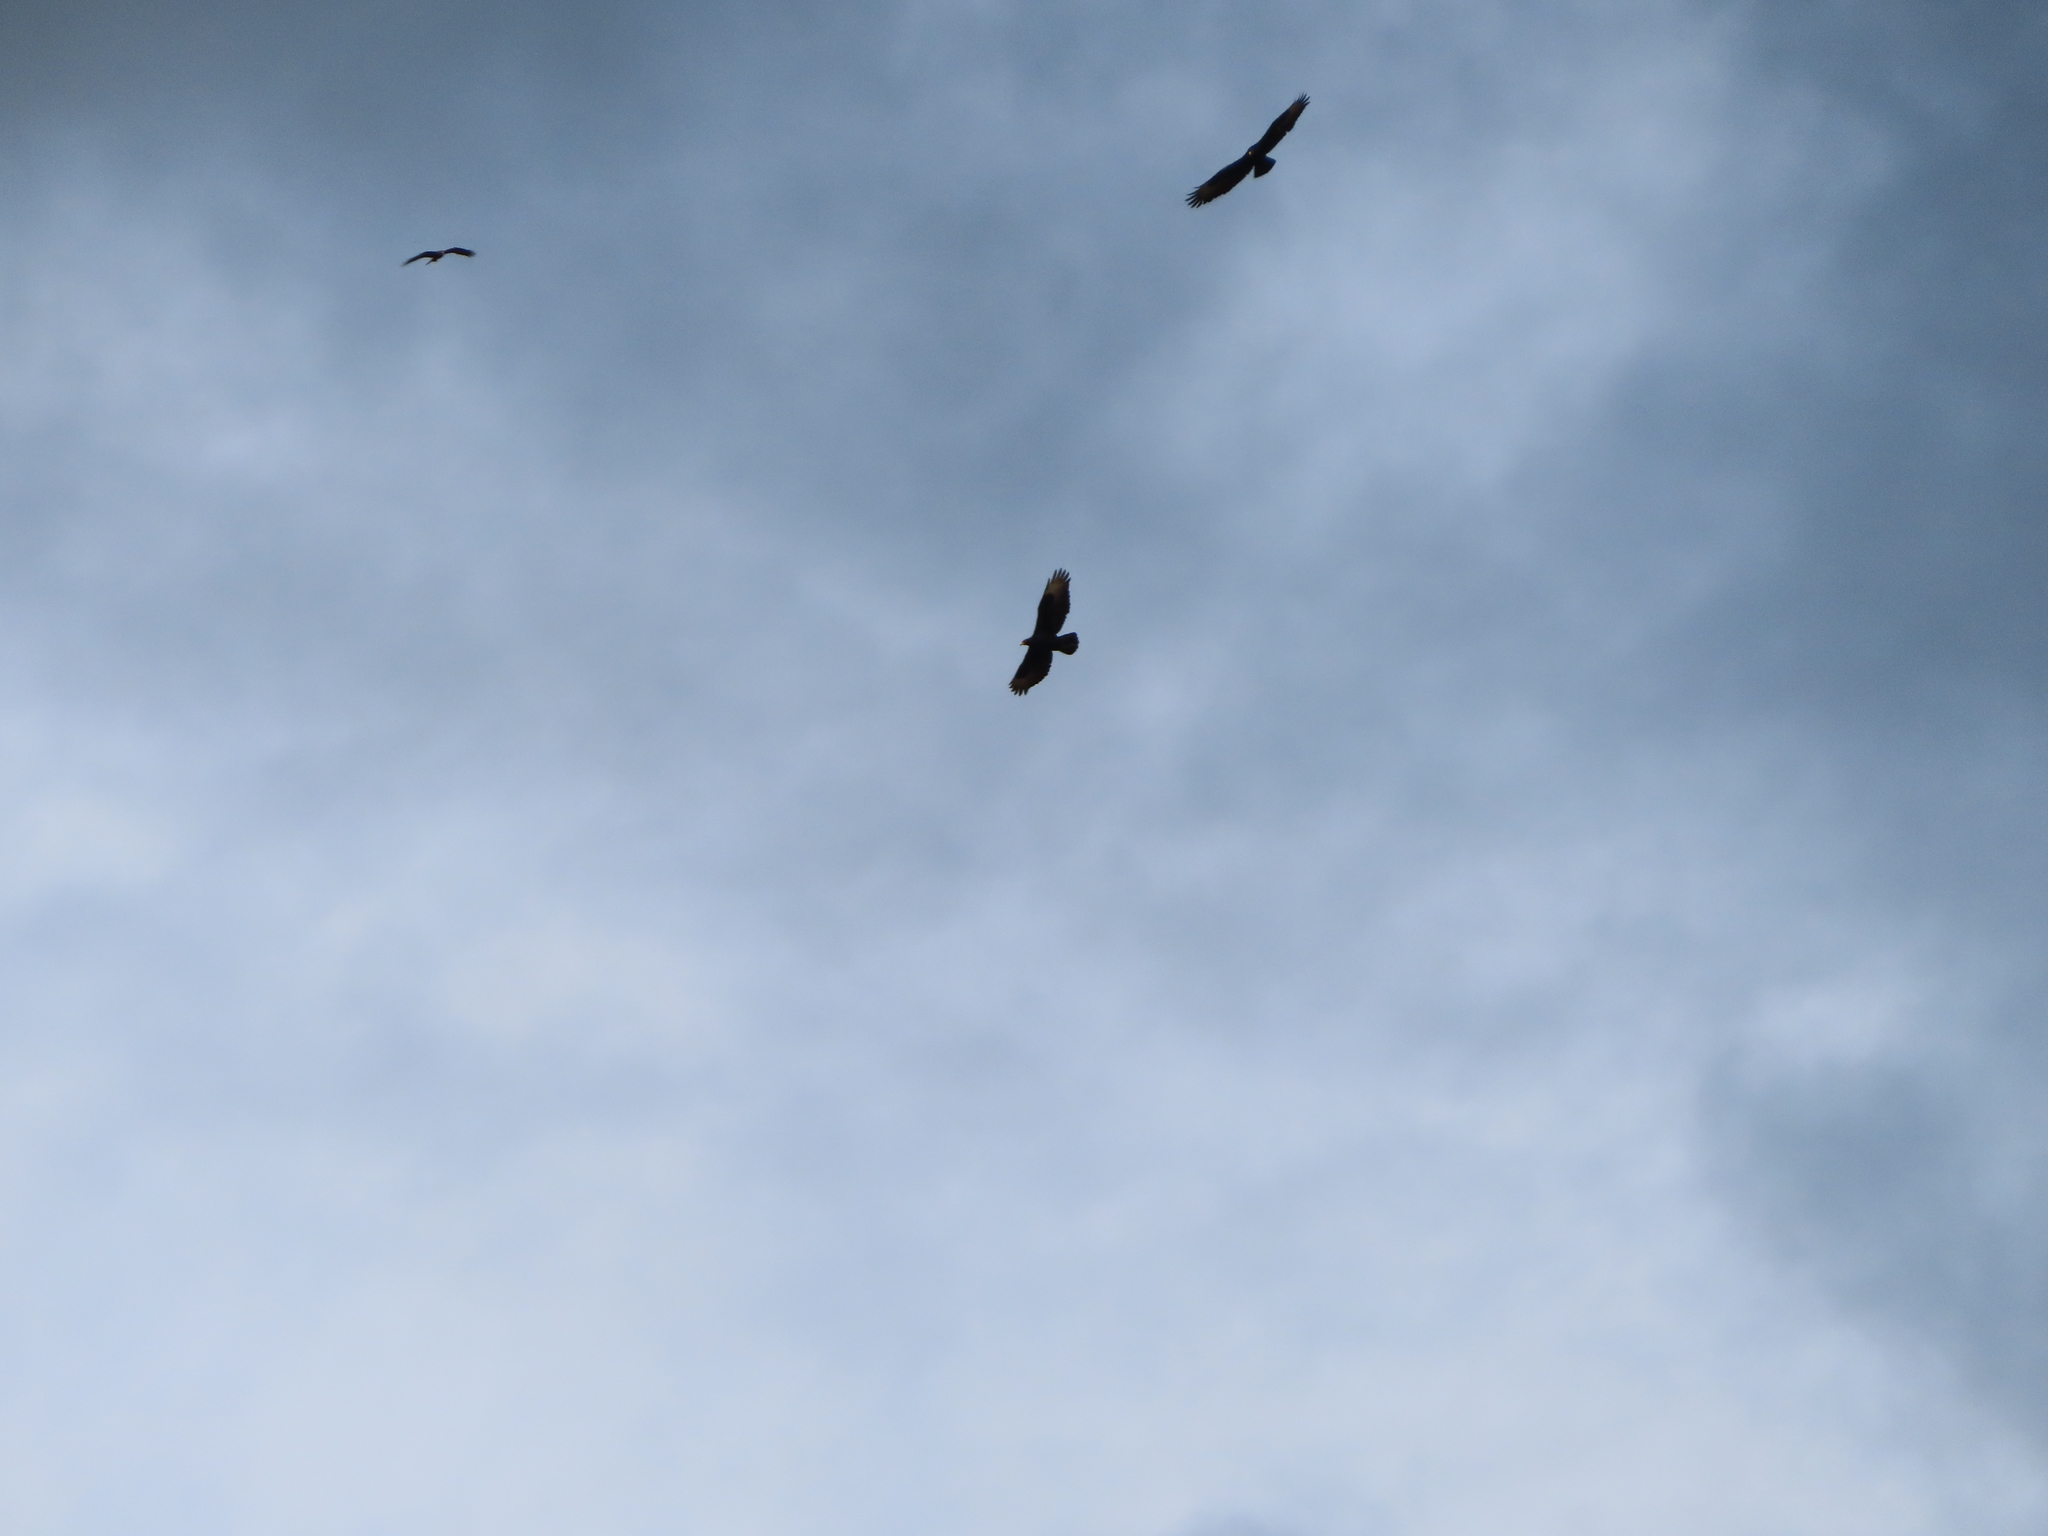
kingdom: Animalia
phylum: Chordata
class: Aves
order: Accipitriformes
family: Accipitridae
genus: Aquila
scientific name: Aquila verreauxii
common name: Verreaux's eagle
